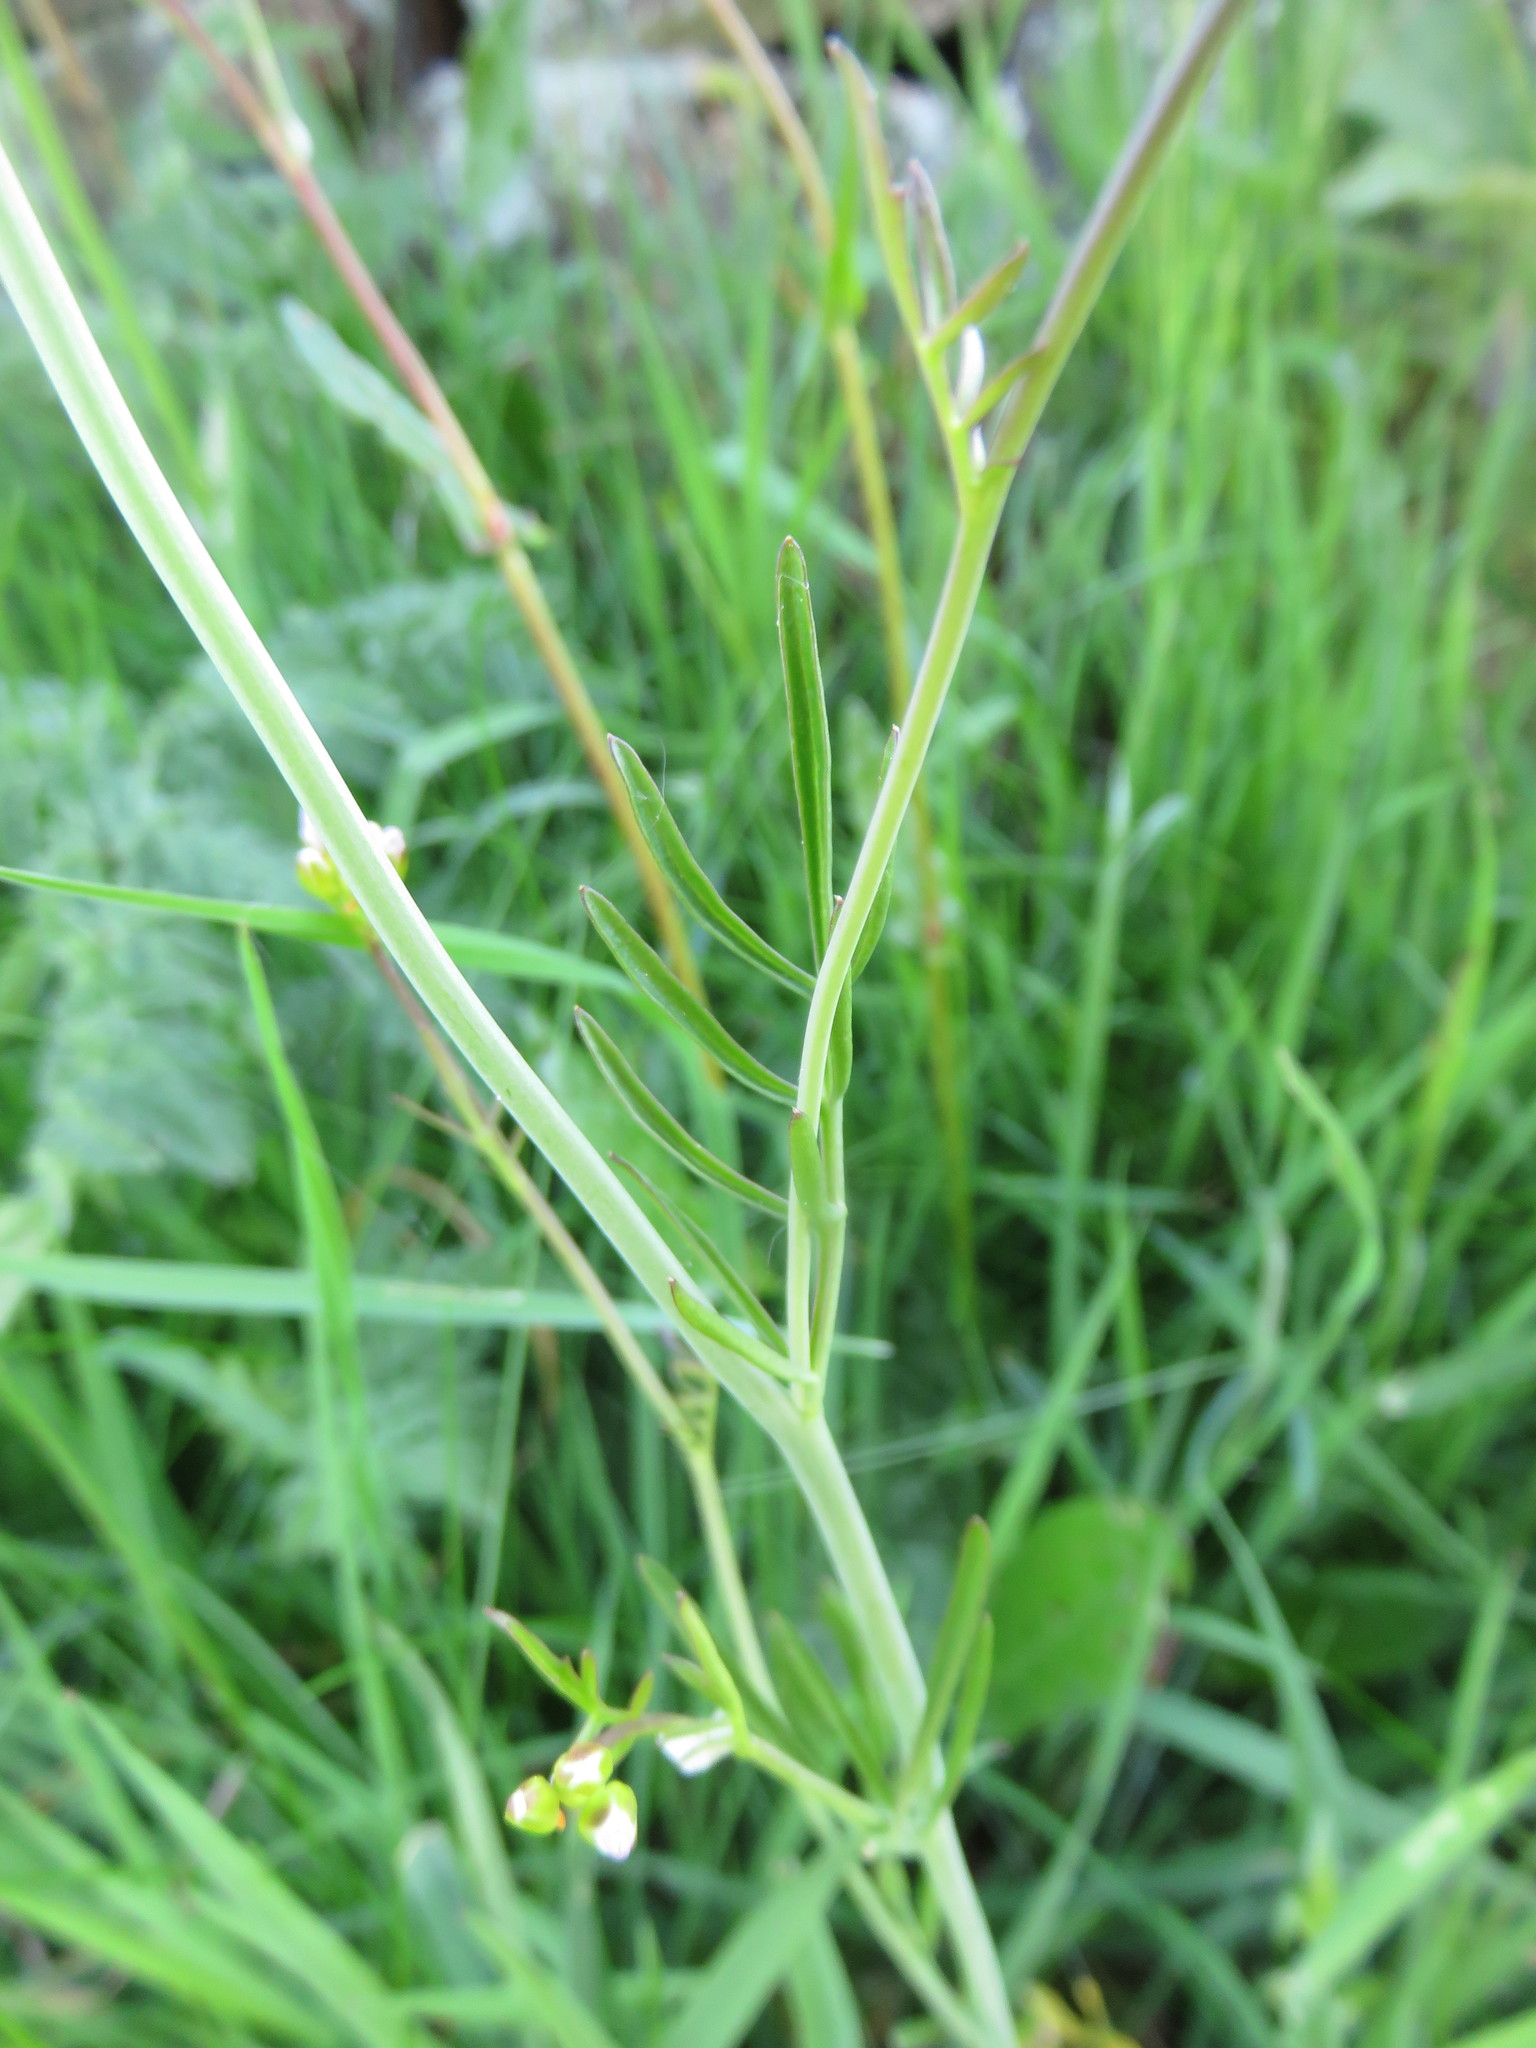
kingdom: Plantae
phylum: Tracheophyta
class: Magnoliopsida
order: Brassicales
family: Brassicaceae
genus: Cardamine
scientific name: Cardamine pratensis
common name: Cuckoo flower
